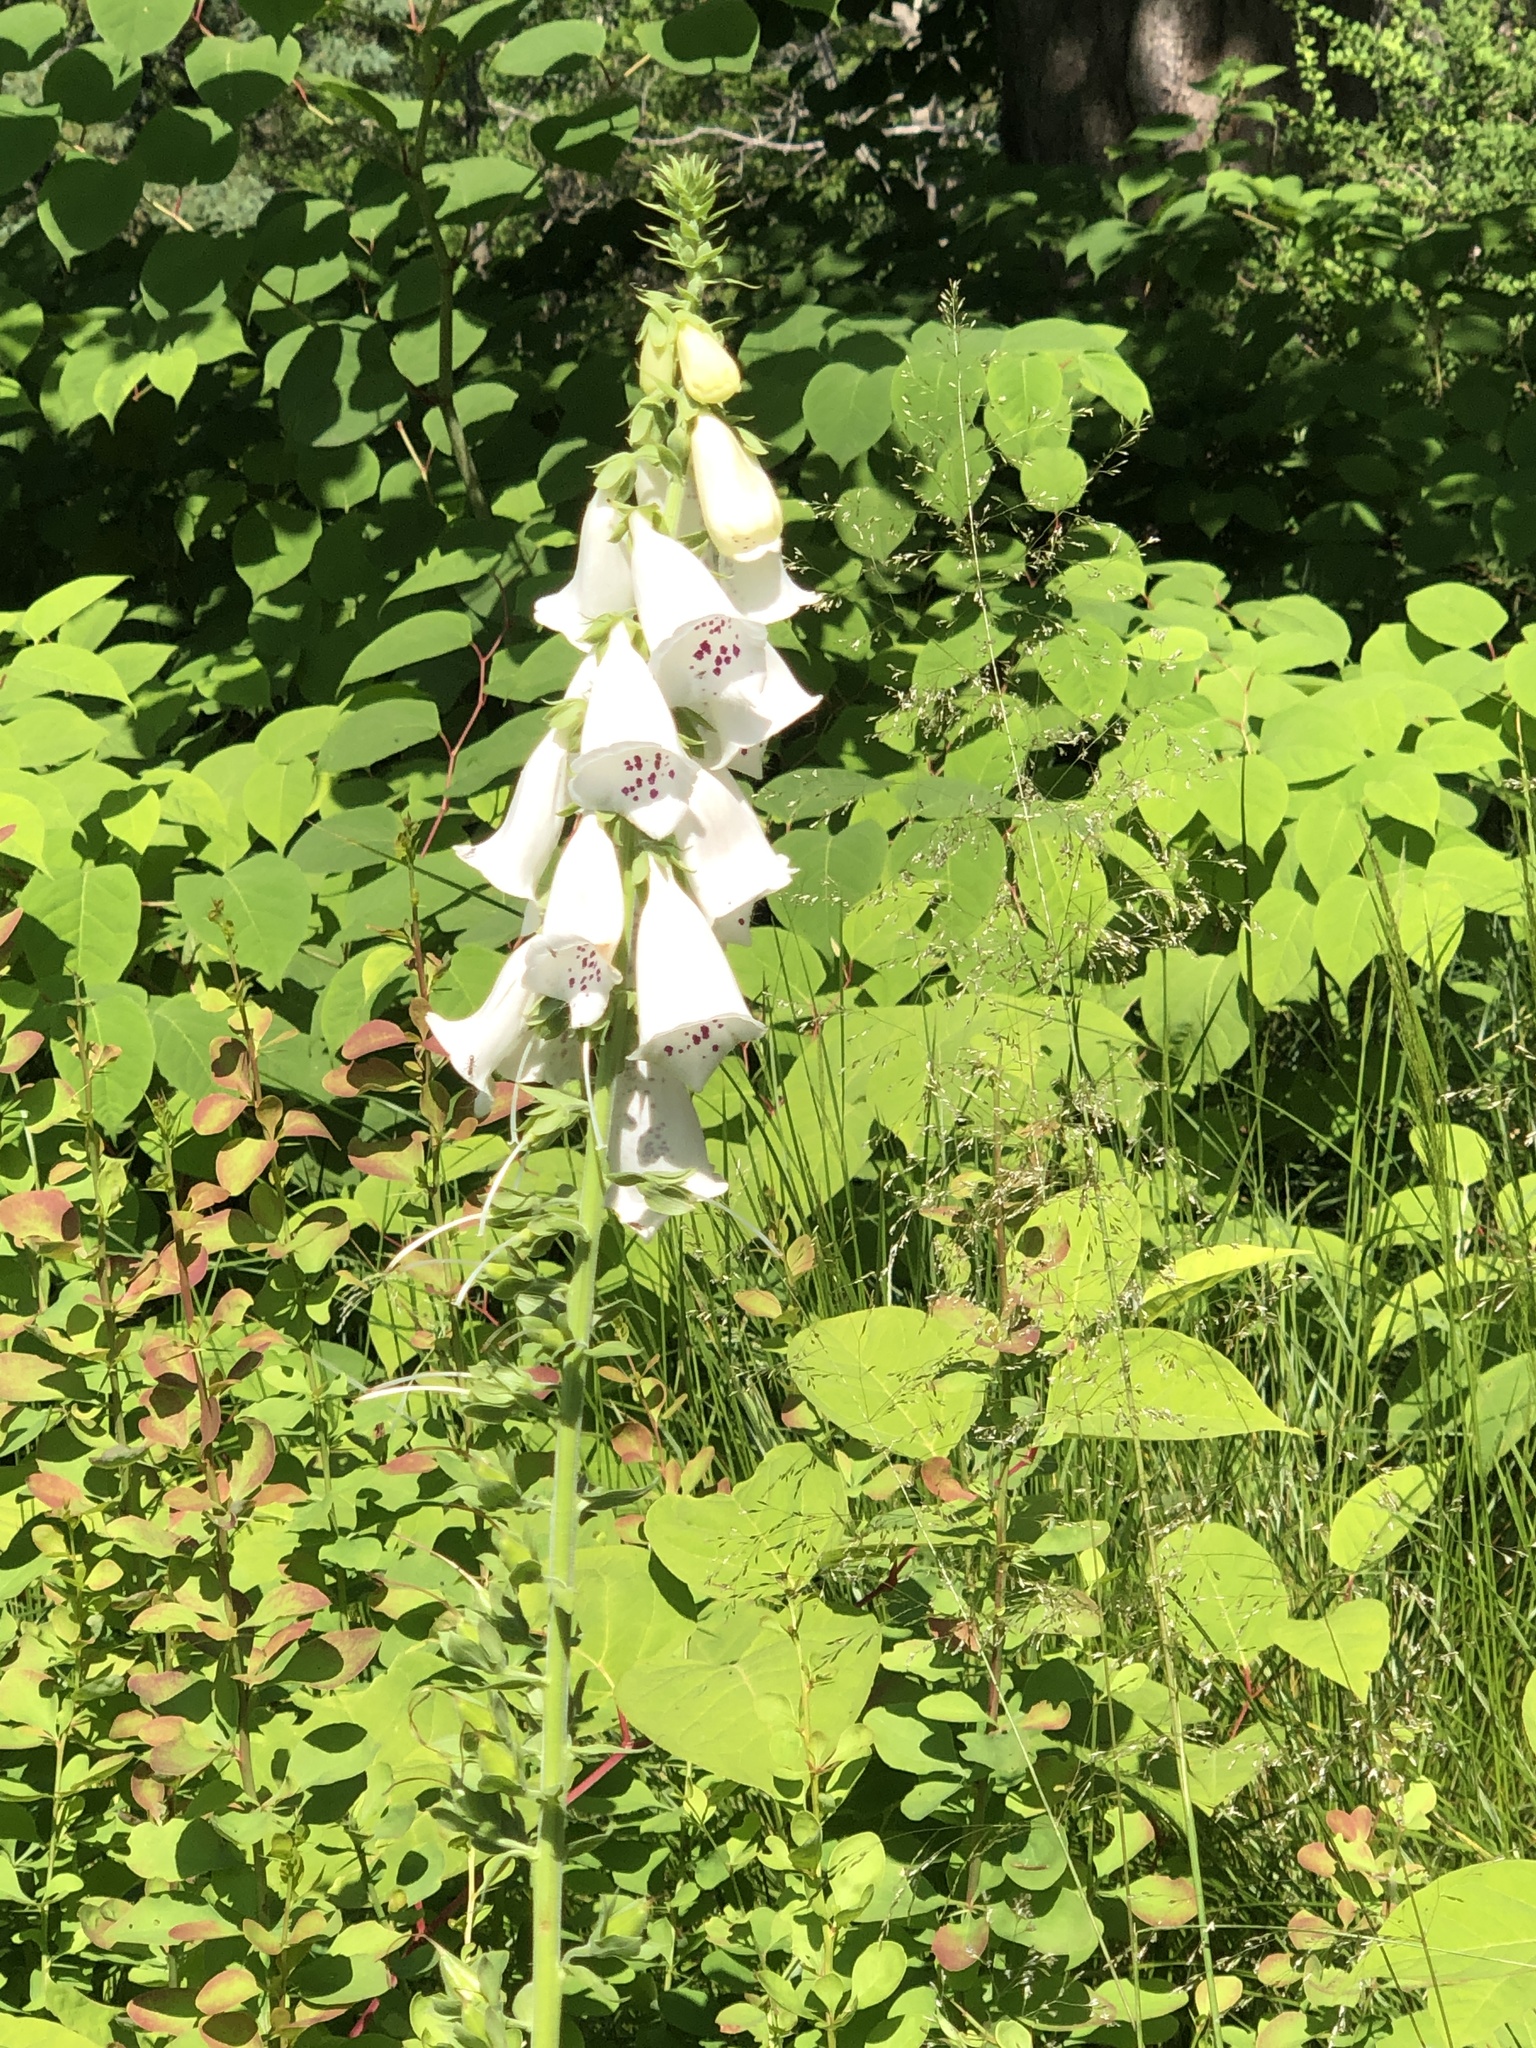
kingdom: Plantae
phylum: Tracheophyta
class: Magnoliopsida
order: Lamiales
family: Plantaginaceae
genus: Digitalis
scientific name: Digitalis purpurea
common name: Foxglove
